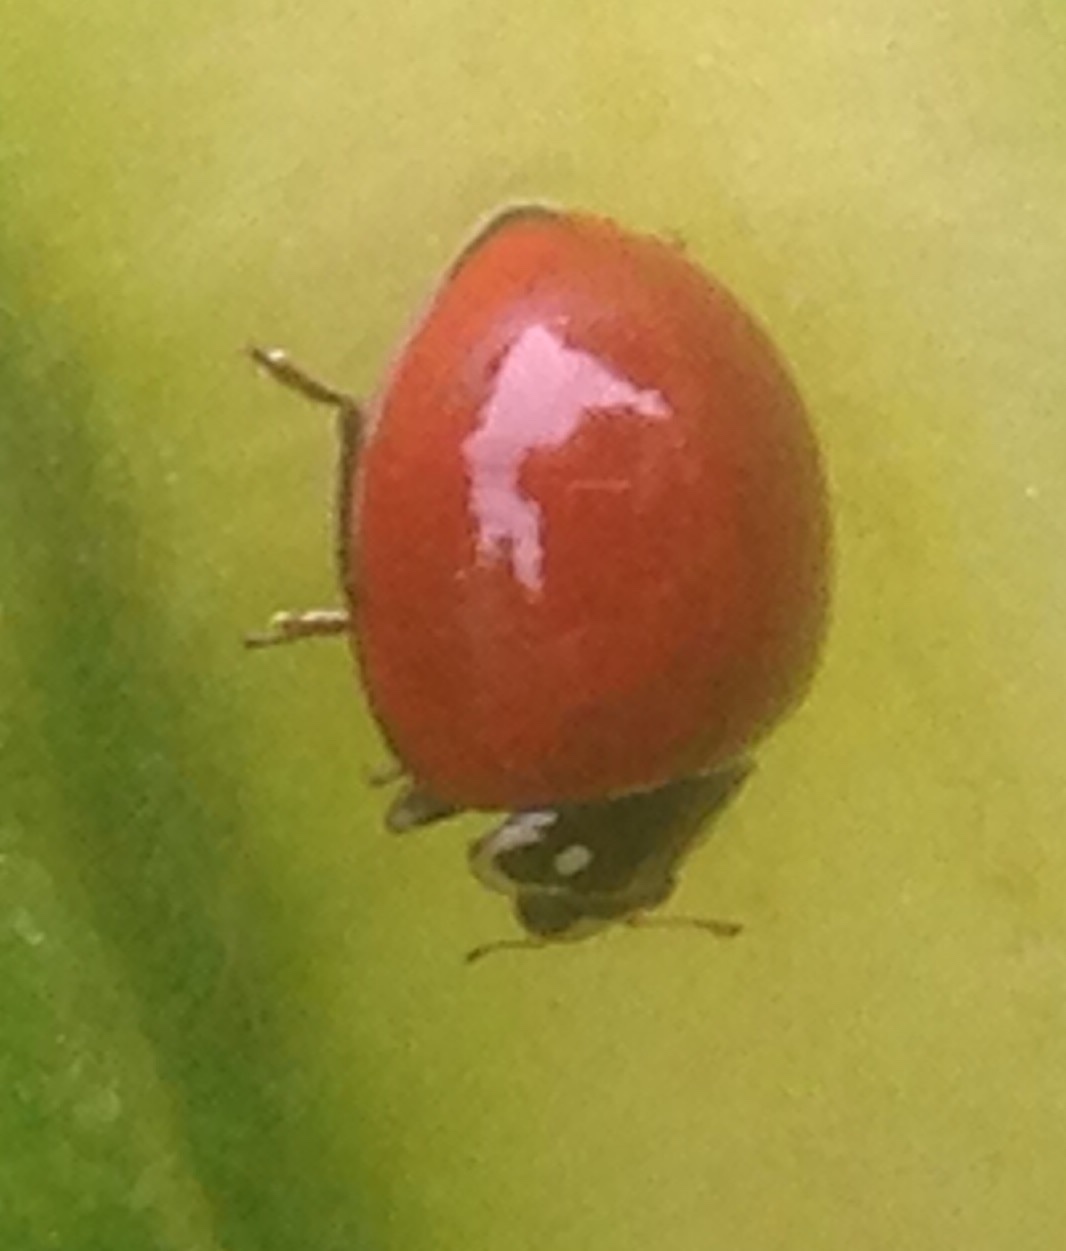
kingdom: Animalia
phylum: Arthropoda
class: Insecta
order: Coleoptera
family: Coccinellidae
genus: Cycloneda
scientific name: Cycloneda sanguinea
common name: Ladybird beetle
